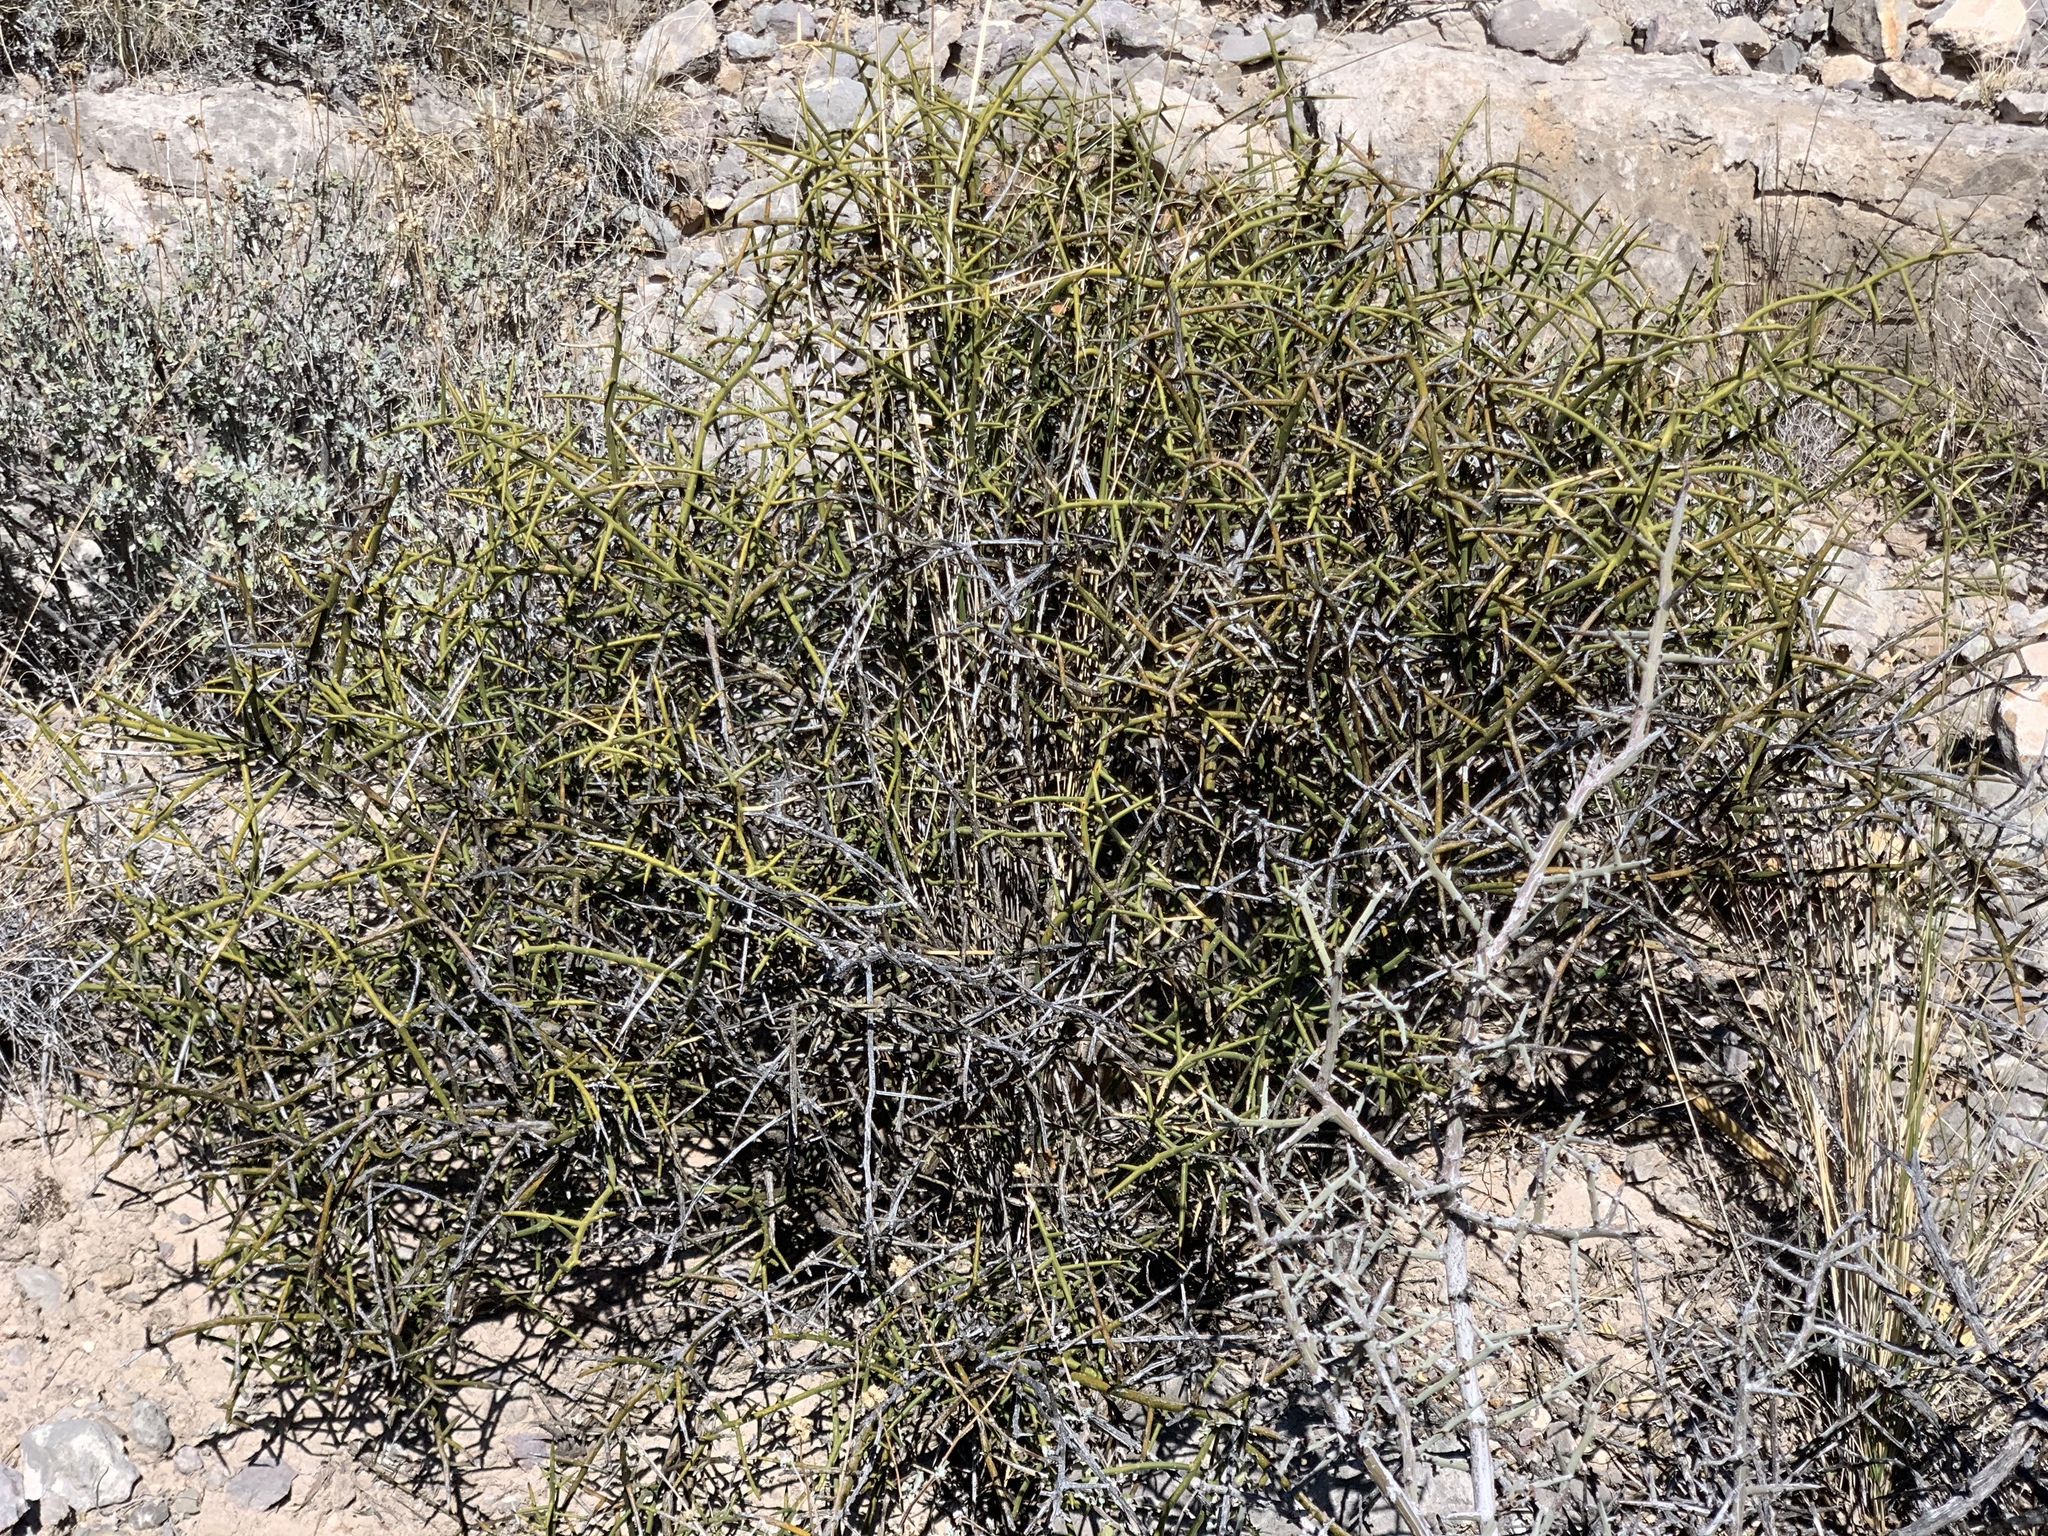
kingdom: Plantae
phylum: Tracheophyta
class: Magnoliopsida
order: Brassicales
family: Koeberliniaceae
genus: Koeberlinia
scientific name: Koeberlinia spinosa
